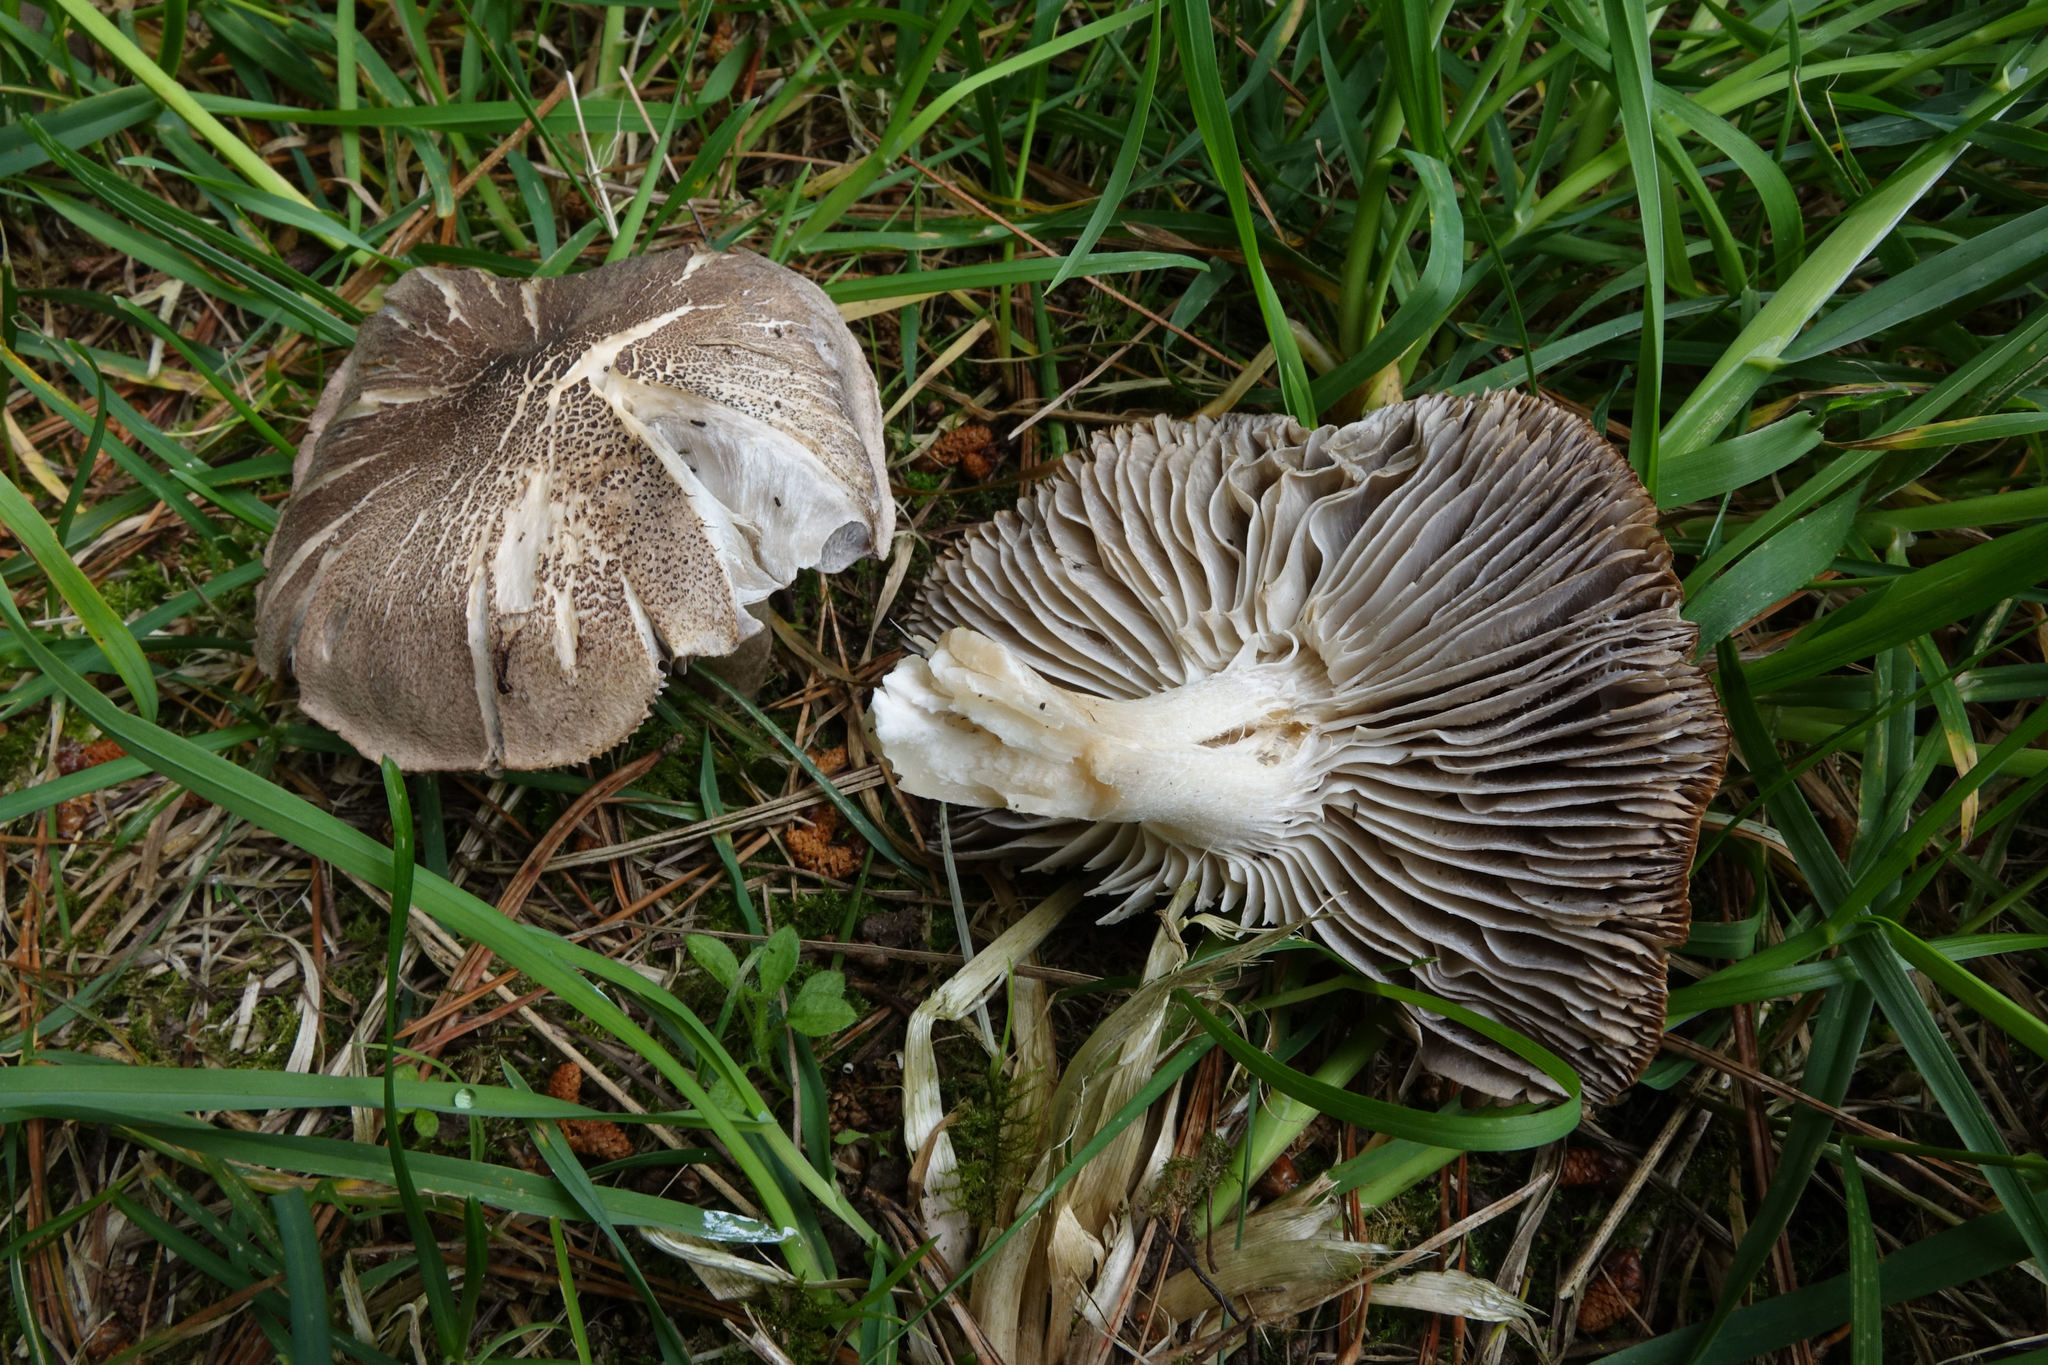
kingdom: Fungi
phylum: Basidiomycota
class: Agaricomycetes
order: Agaricales
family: Tricholomataceae
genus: Tricholoma
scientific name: Tricholoma terreum
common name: Grey knight
